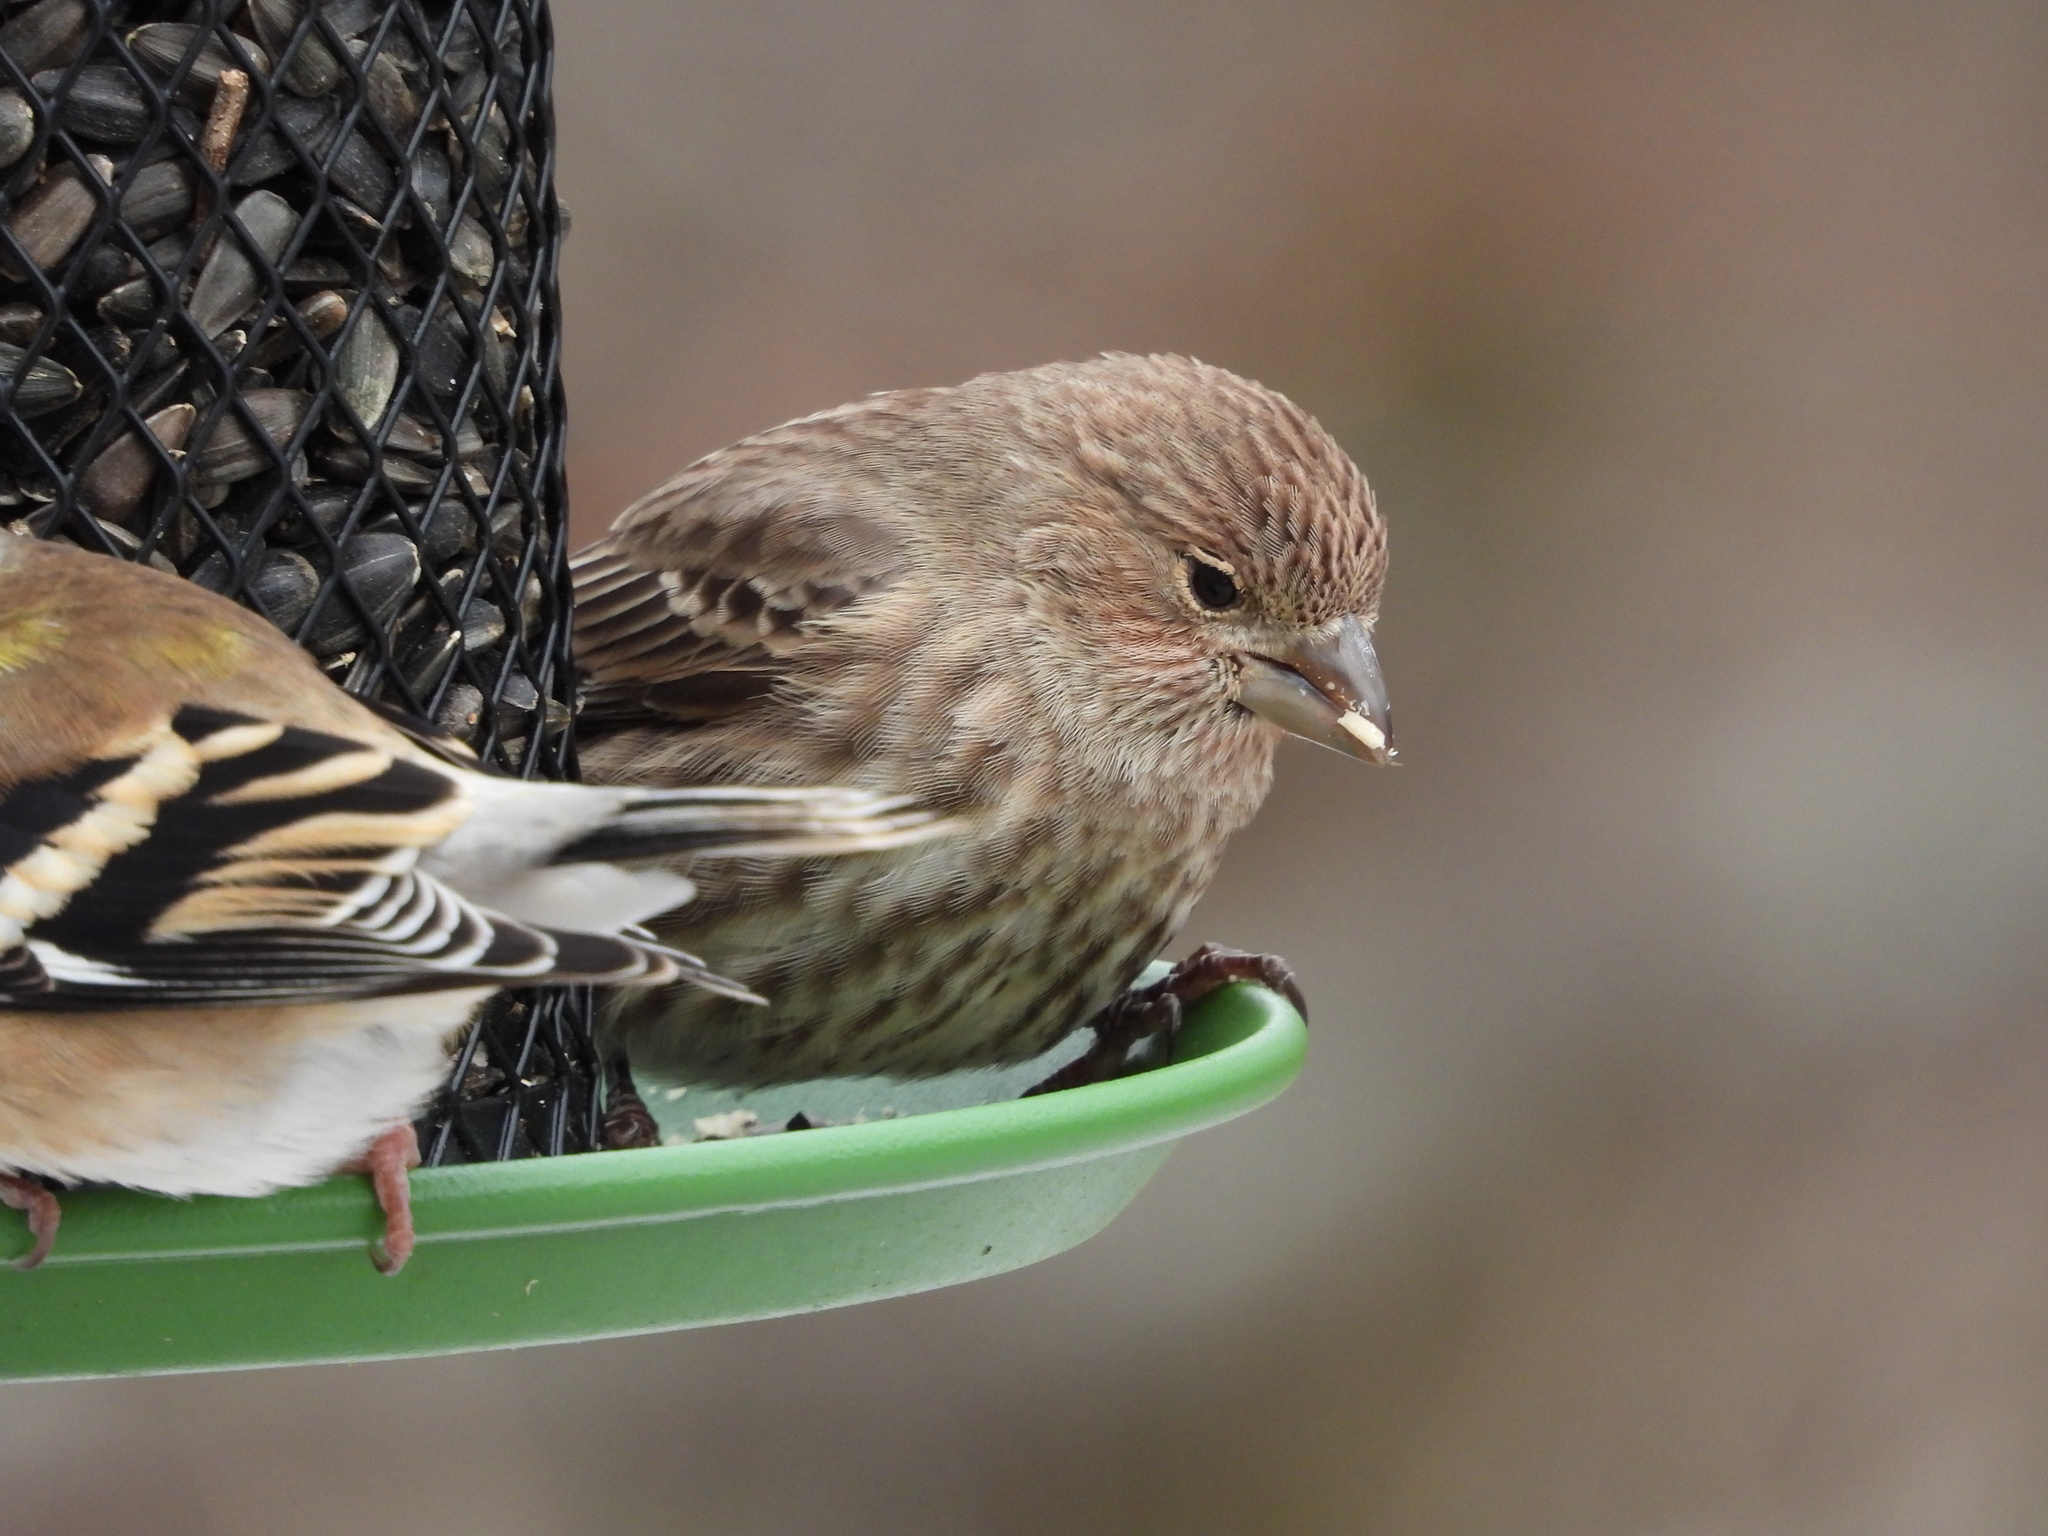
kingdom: Animalia
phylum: Chordata
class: Aves
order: Passeriformes
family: Fringillidae
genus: Haemorhous
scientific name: Haemorhous mexicanus
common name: House finch
